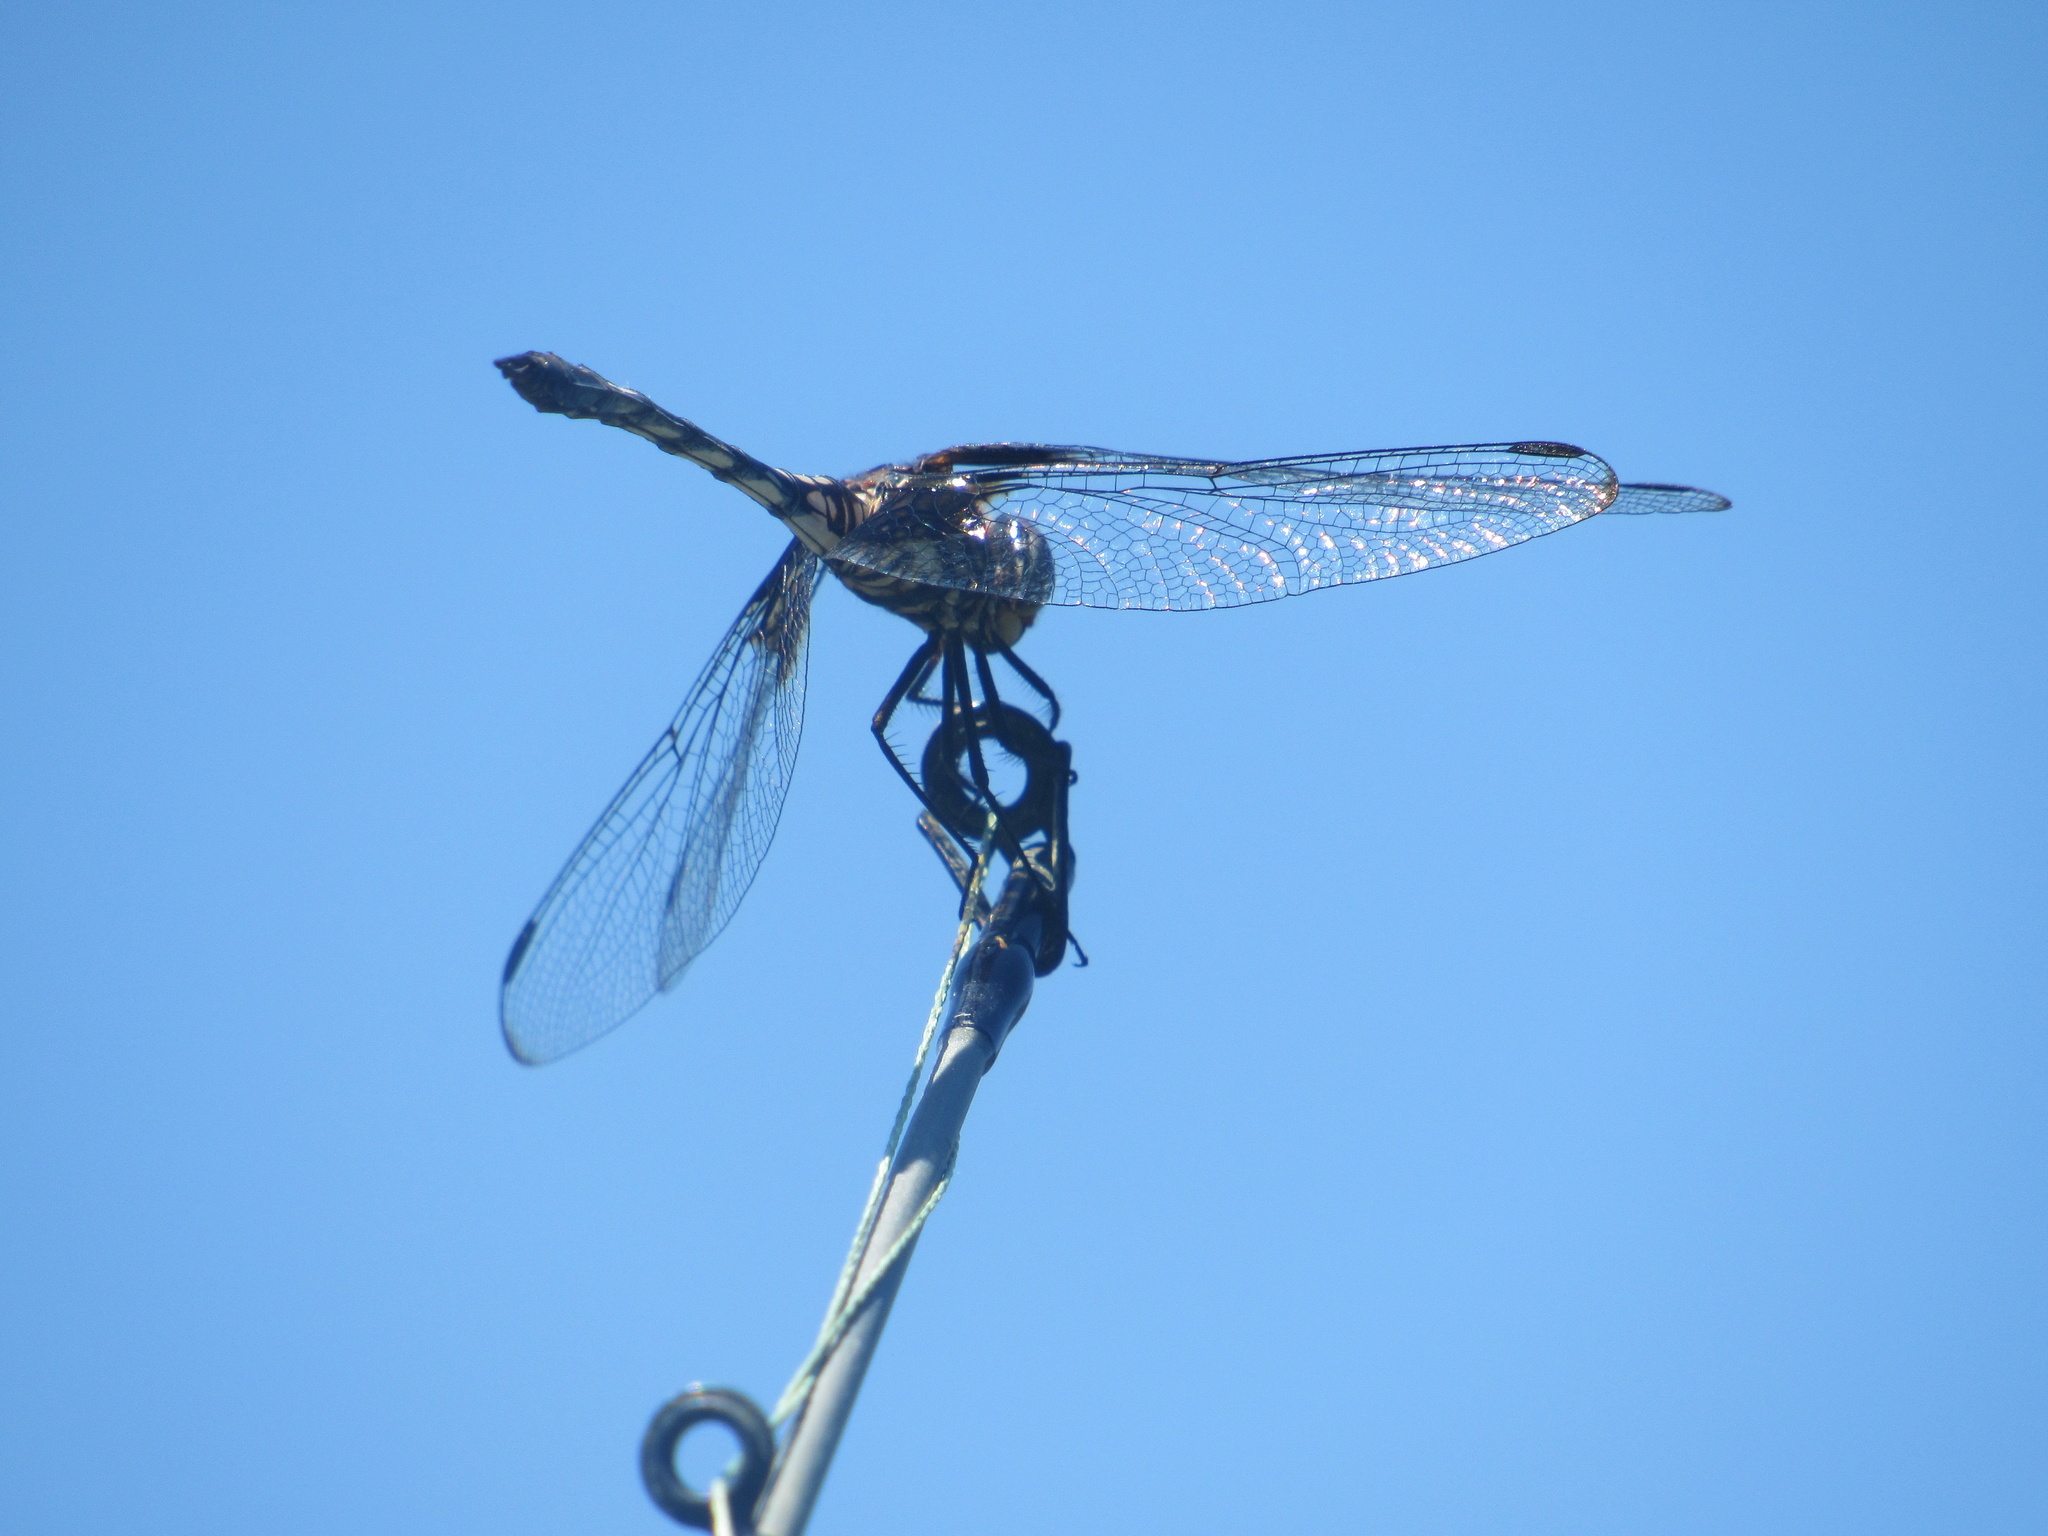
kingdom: Animalia
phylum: Arthropoda
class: Insecta
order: Odonata
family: Libellulidae
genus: Dythemis
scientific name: Dythemis fugax
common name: Checkered setwing
